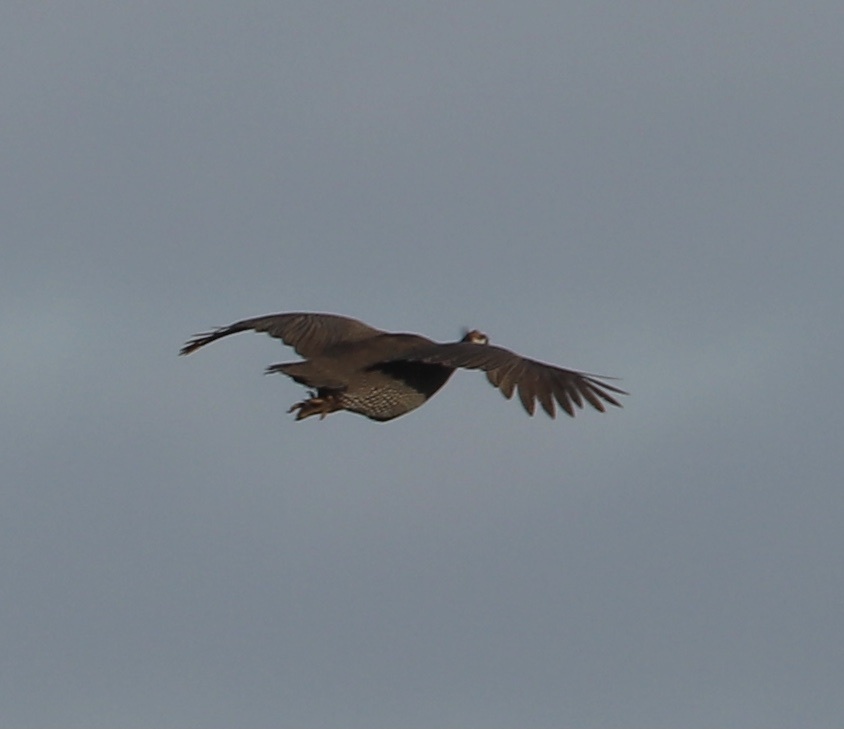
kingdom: Animalia
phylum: Chordata
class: Aves
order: Galliformes
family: Numididae
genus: Numida
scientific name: Numida meleagris
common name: Helmeted guineafowl
